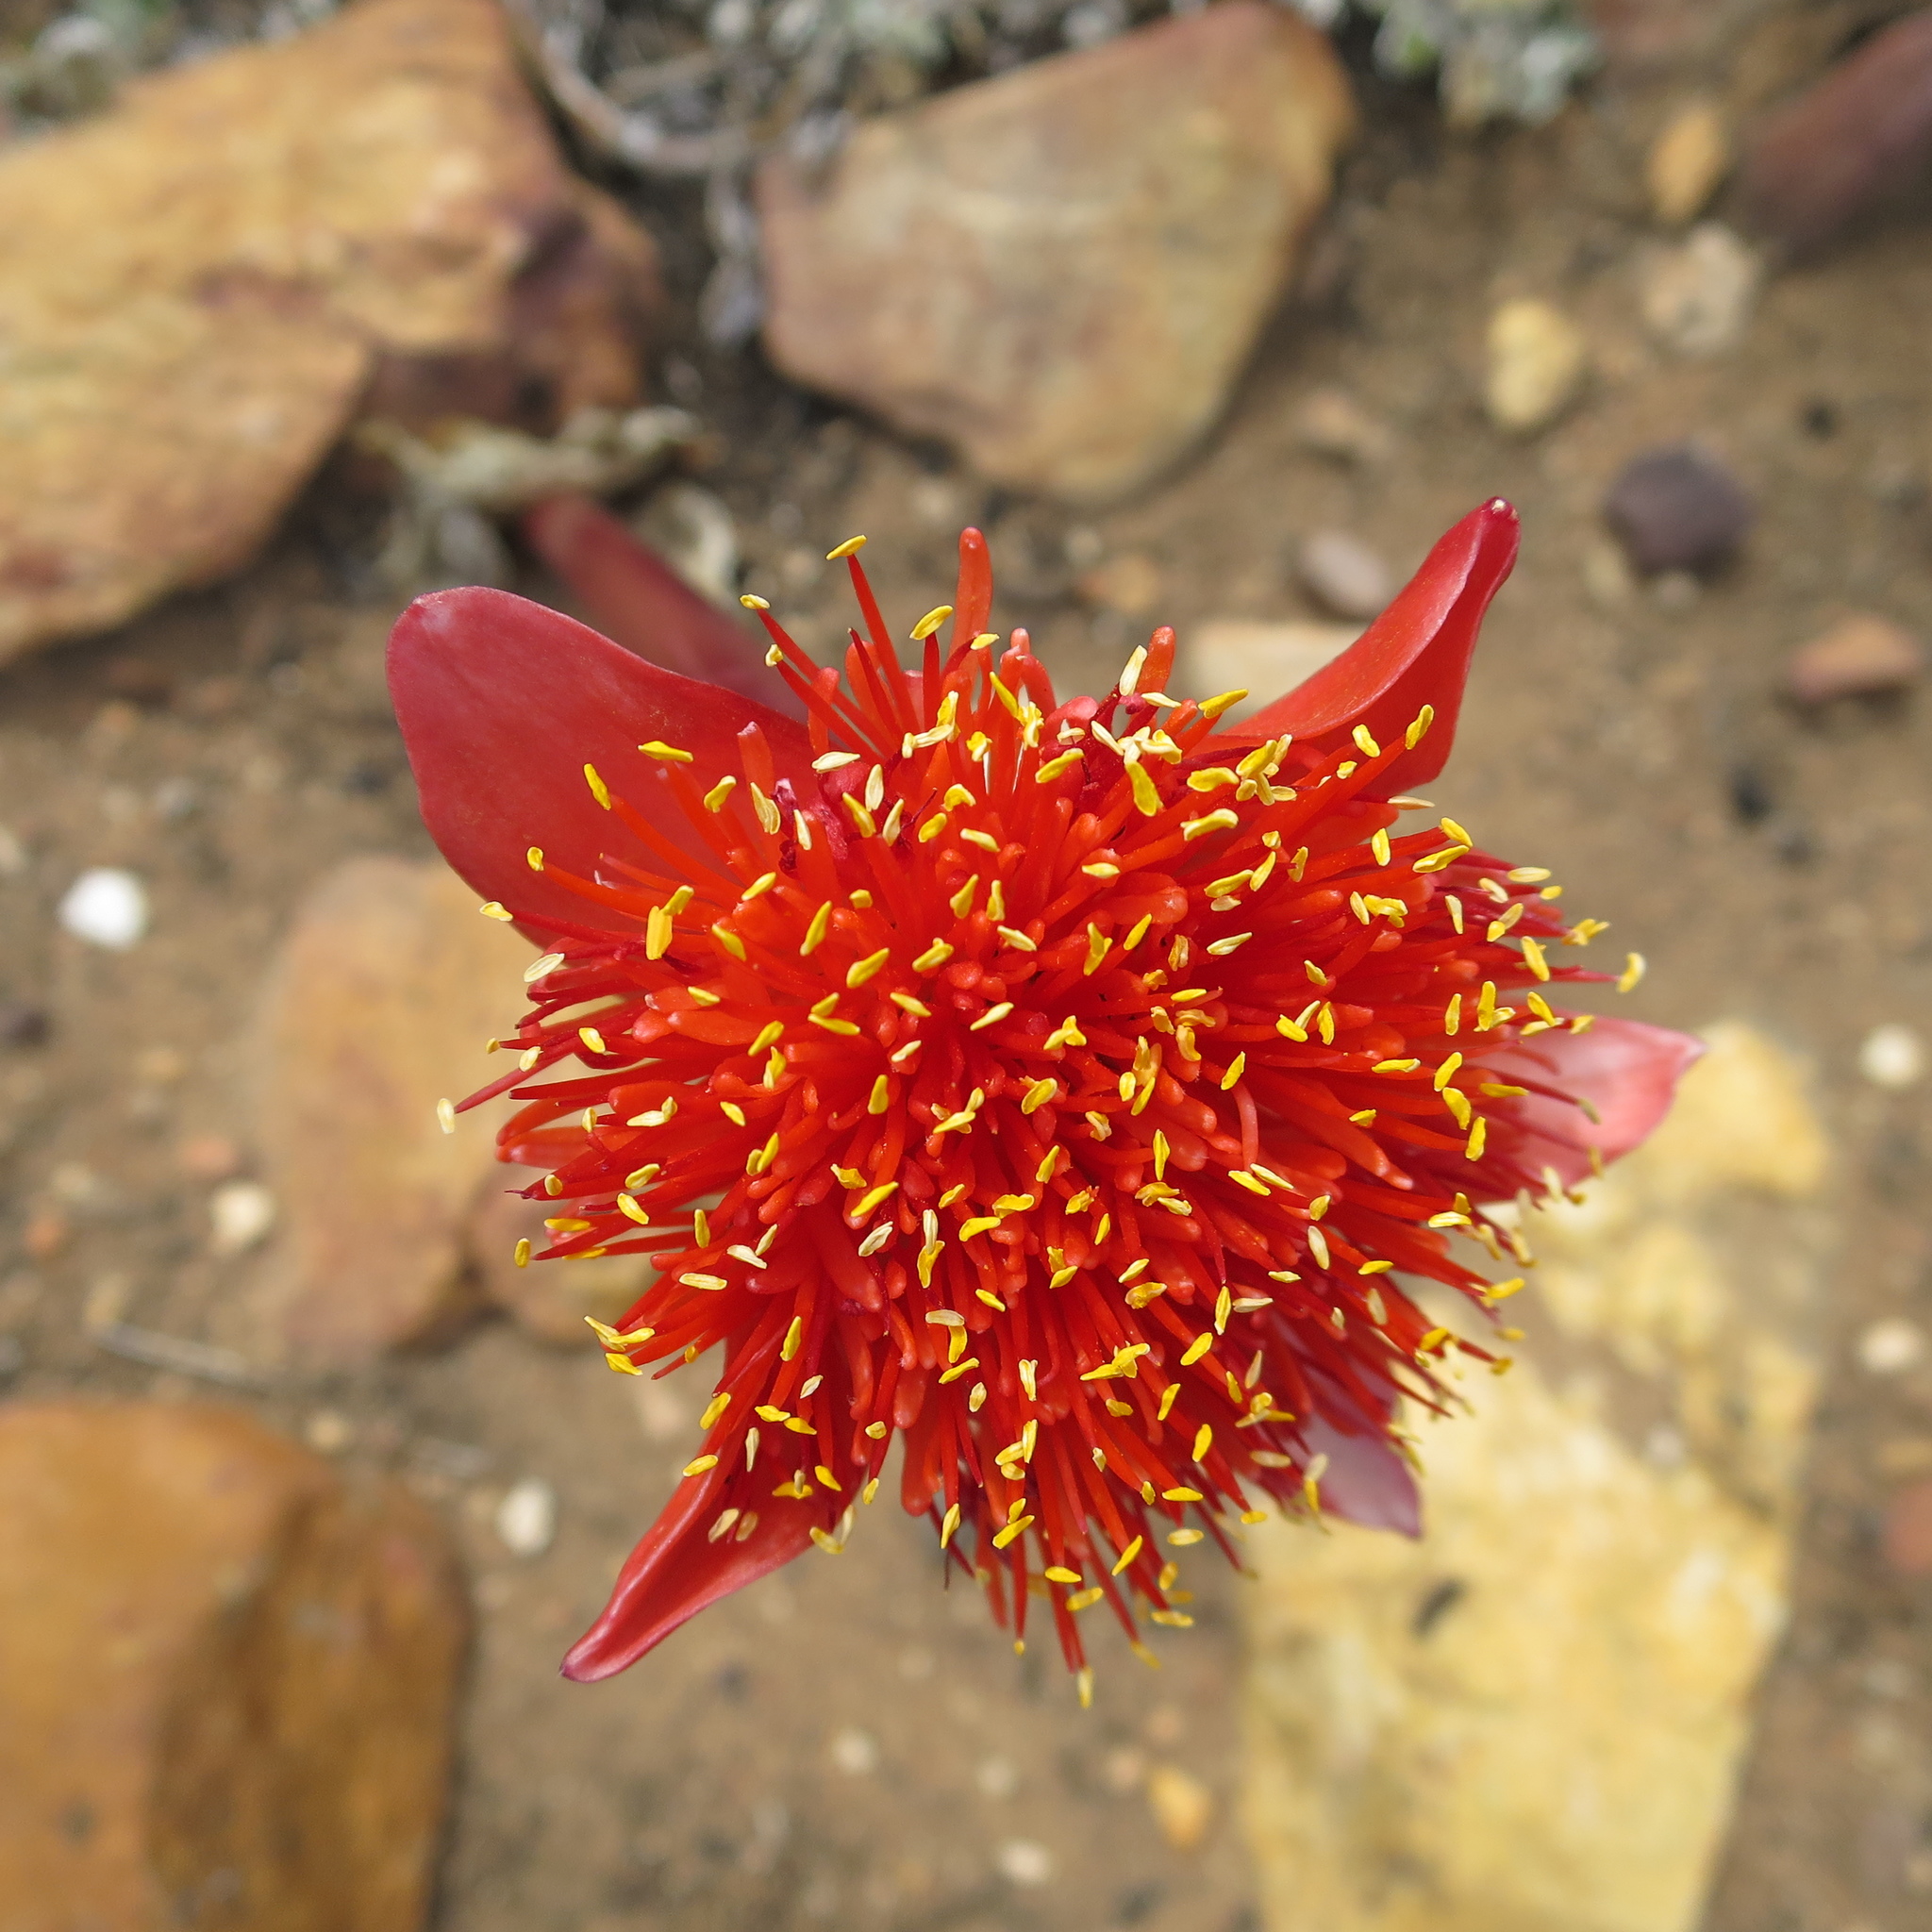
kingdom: Plantae
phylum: Tracheophyta
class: Liliopsida
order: Asparagales
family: Amaryllidaceae
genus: Haemanthus
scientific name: Haemanthus sanguineus
